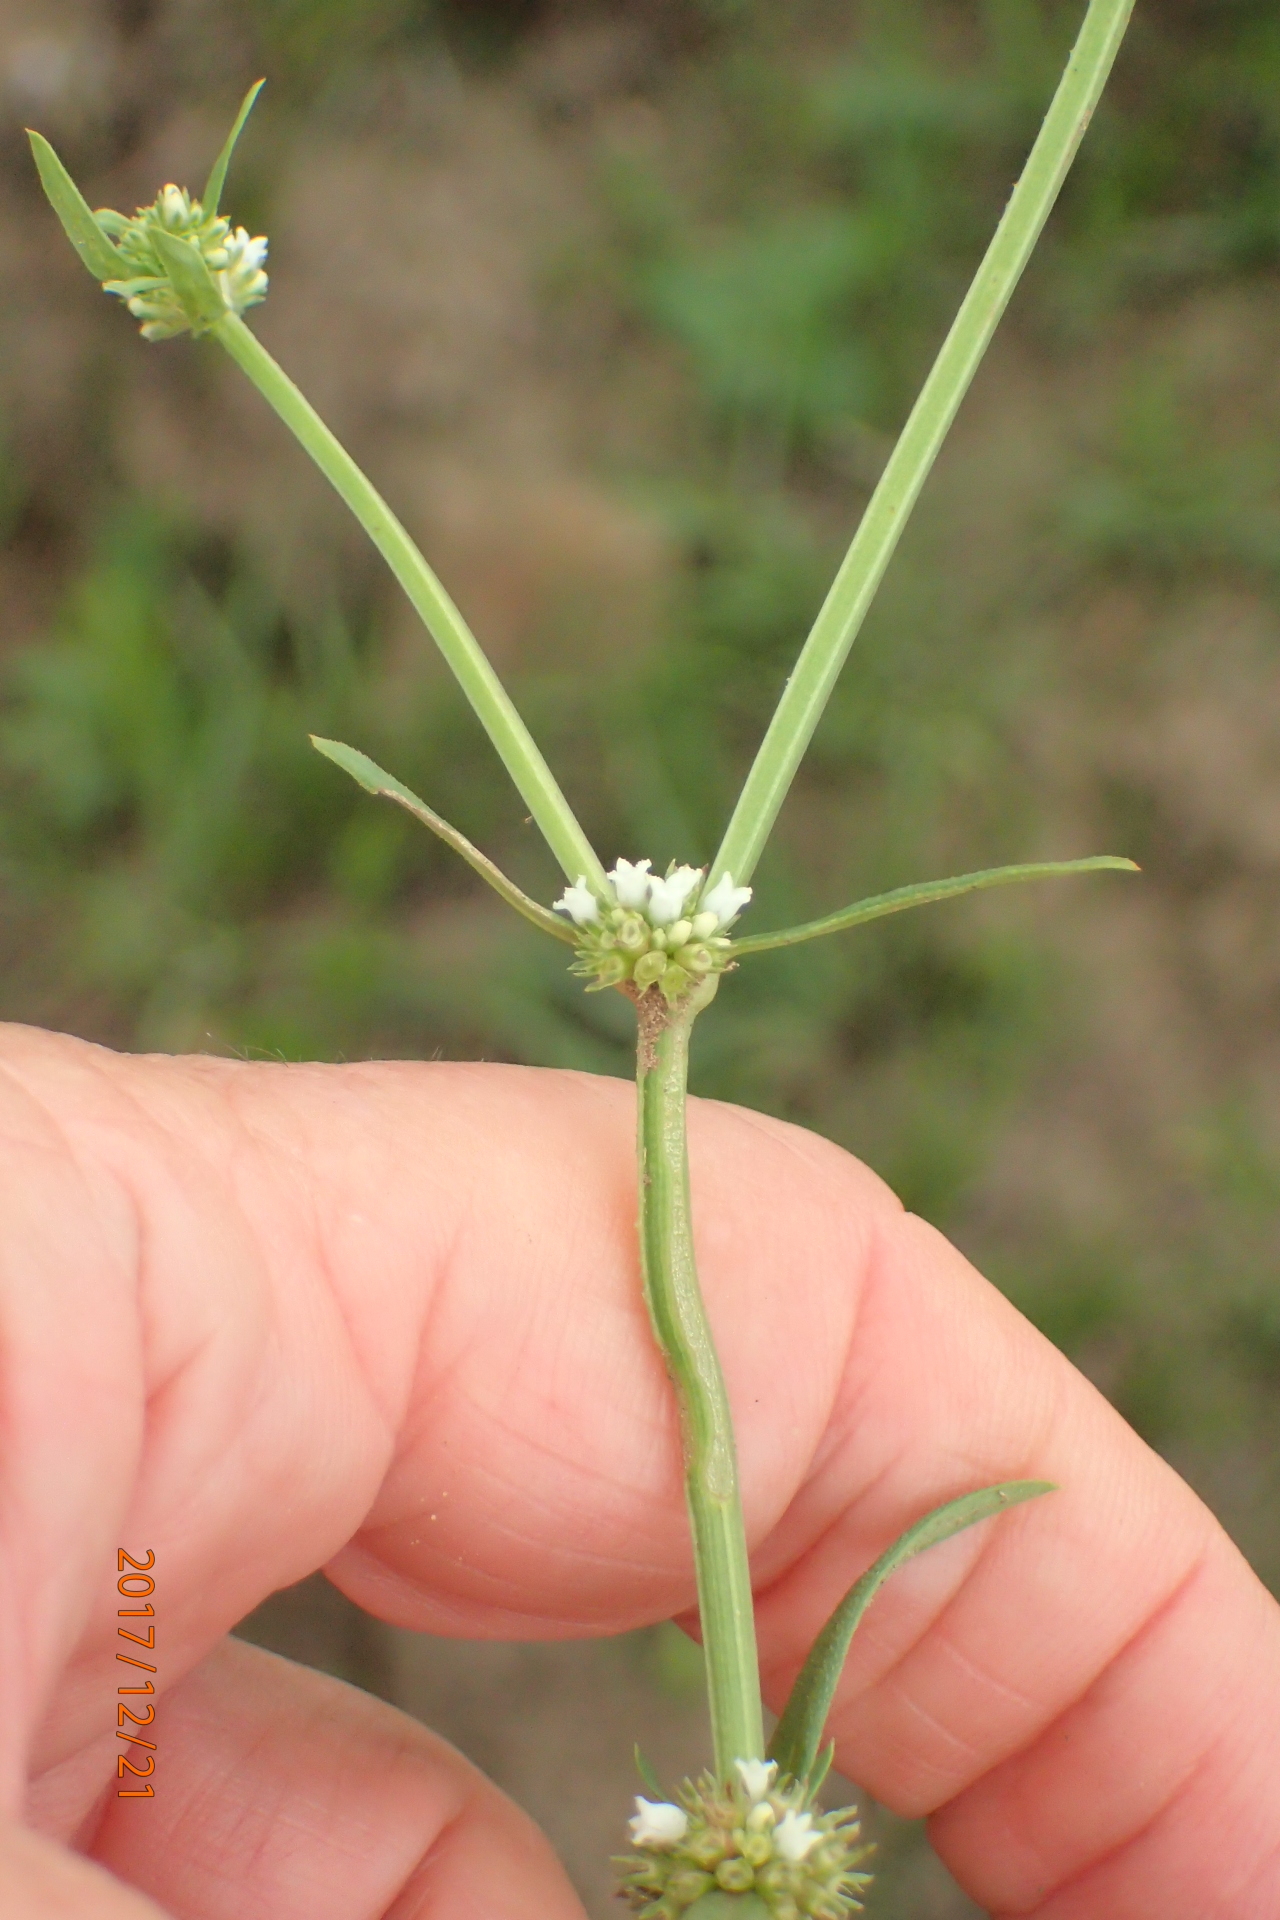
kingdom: Plantae
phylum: Tracheophyta
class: Magnoliopsida
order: Gentianales
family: Rubiaceae
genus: Spermacoce
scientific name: Spermacoce natalensis
